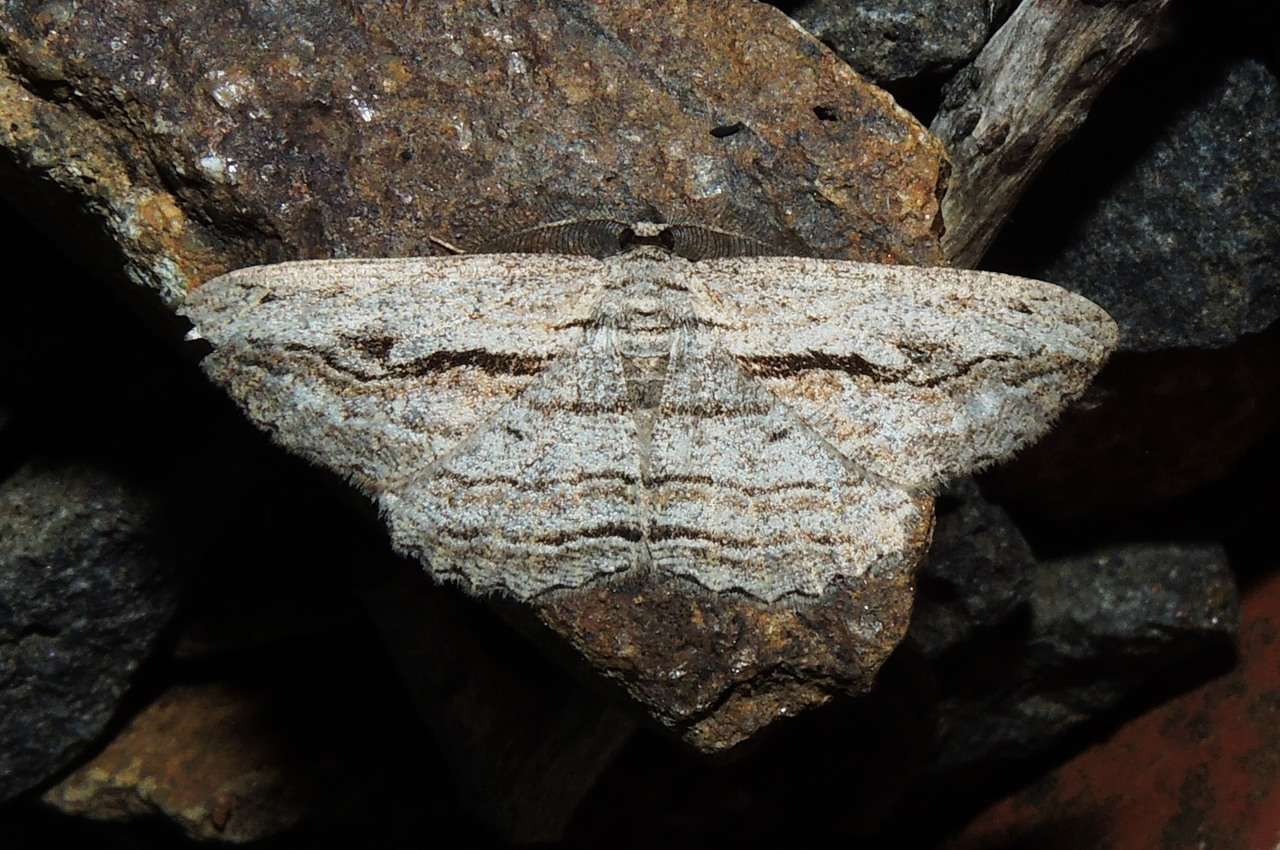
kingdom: Animalia
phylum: Arthropoda
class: Insecta
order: Lepidoptera
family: Geometridae
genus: Scioglyptis
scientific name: Scioglyptis loxographa
